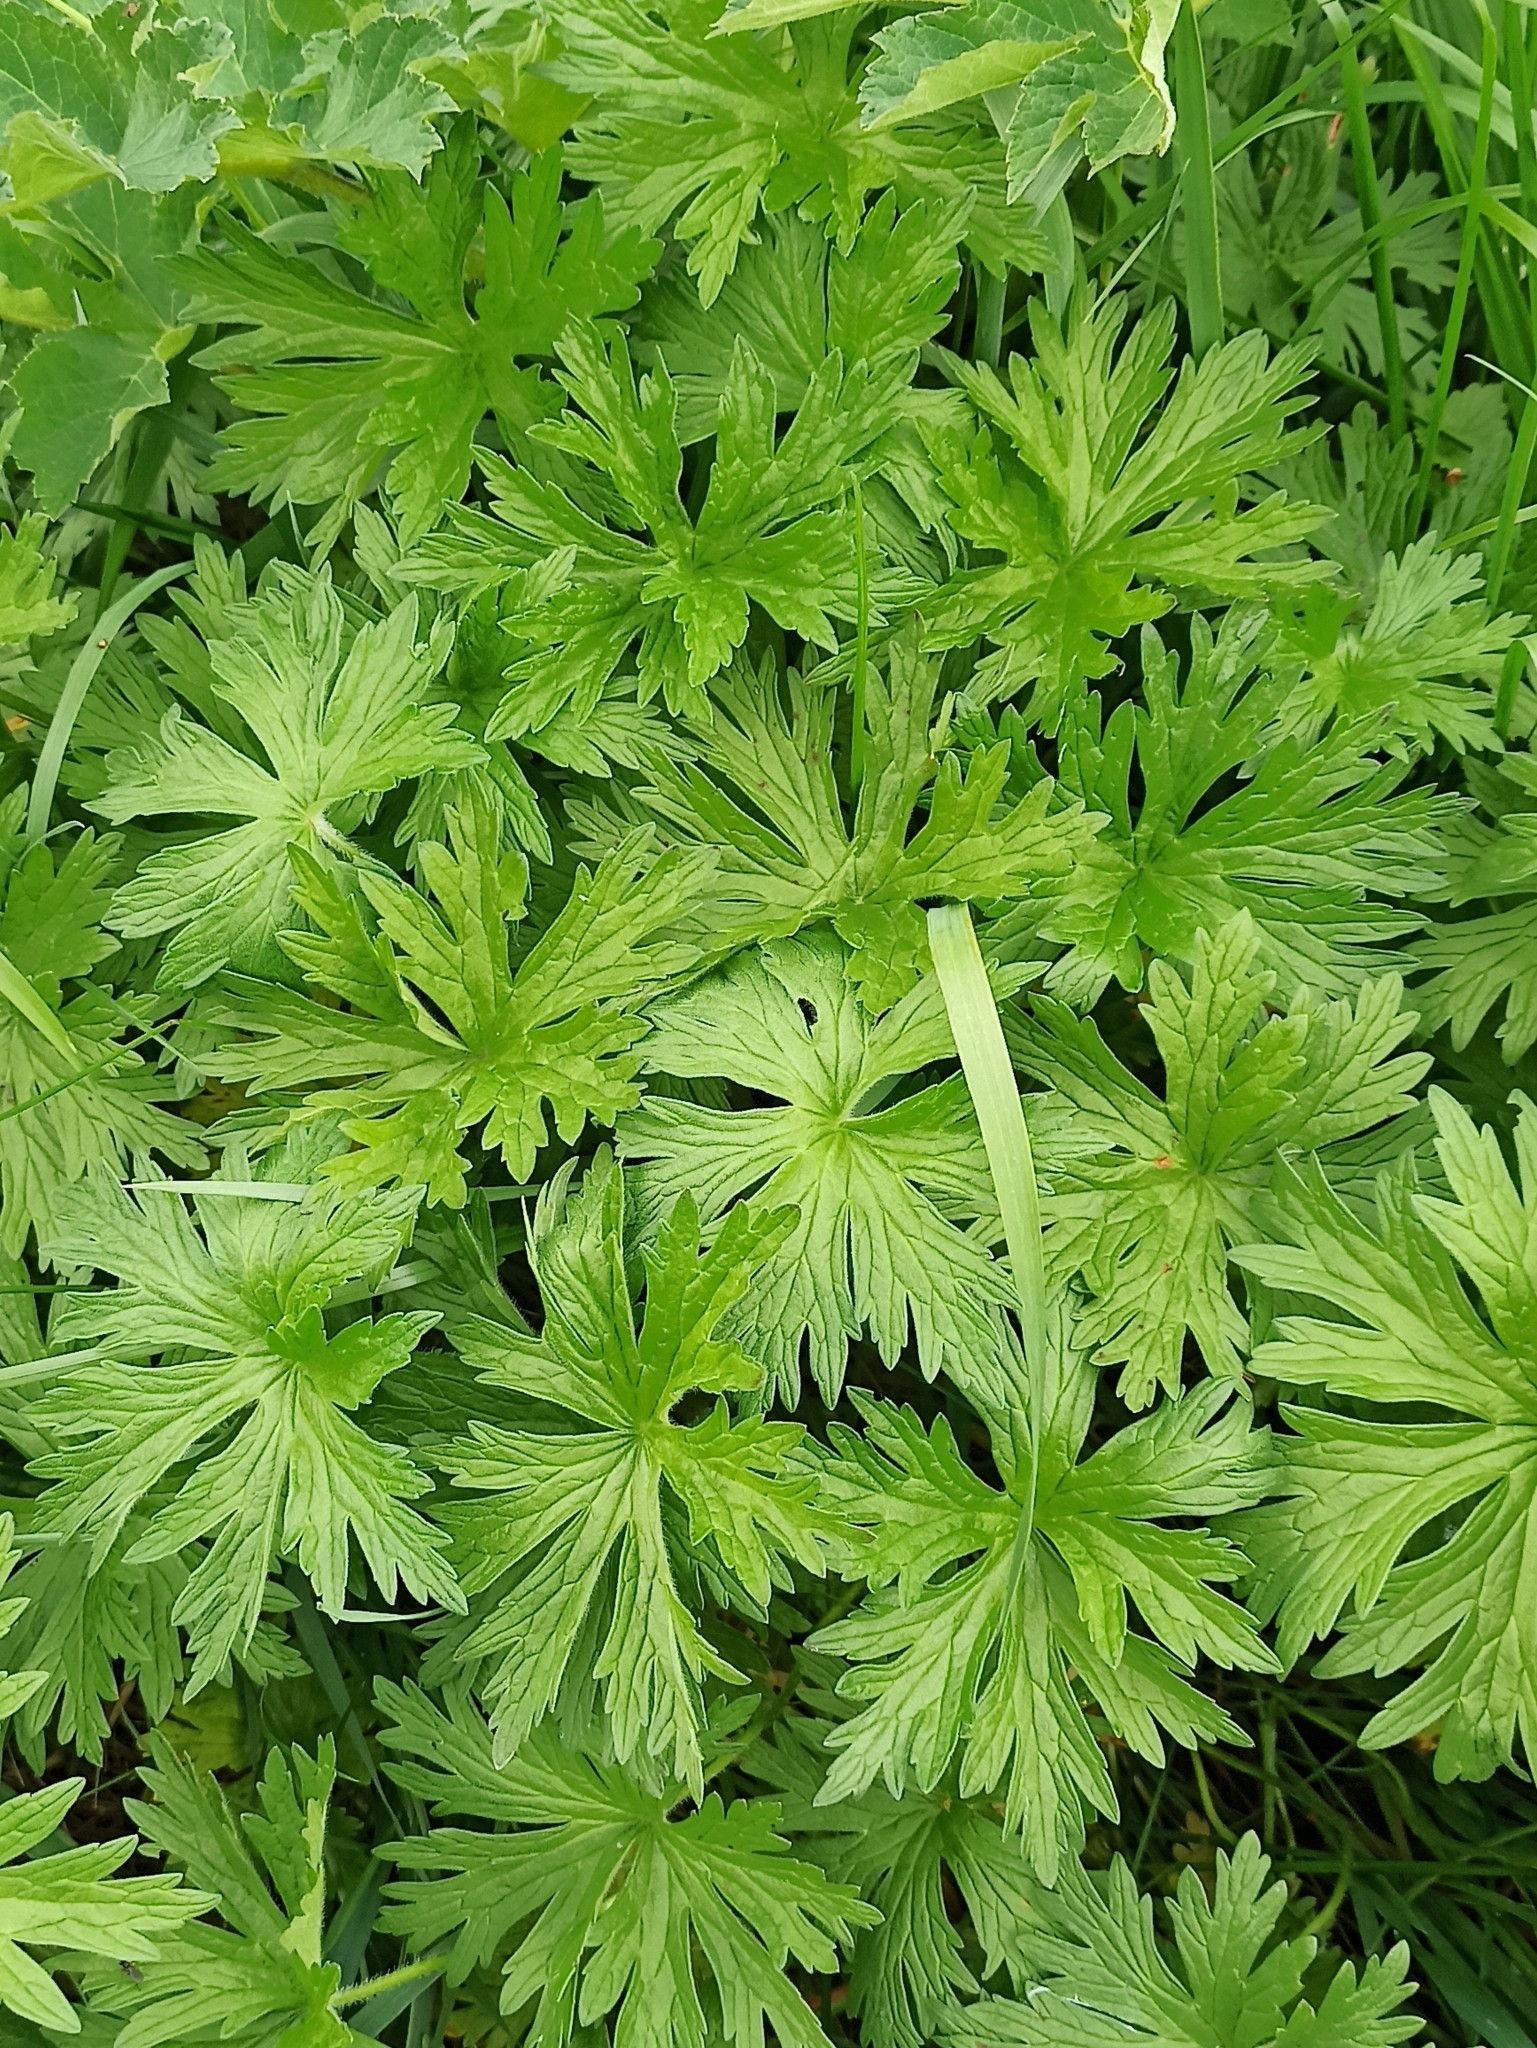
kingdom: Plantae
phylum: Tracheophyta
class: Magnoliopsida
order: Geraniales
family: Geraniaceae
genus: Geranium
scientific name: Geranium pratense
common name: Meadow crane's-bill
